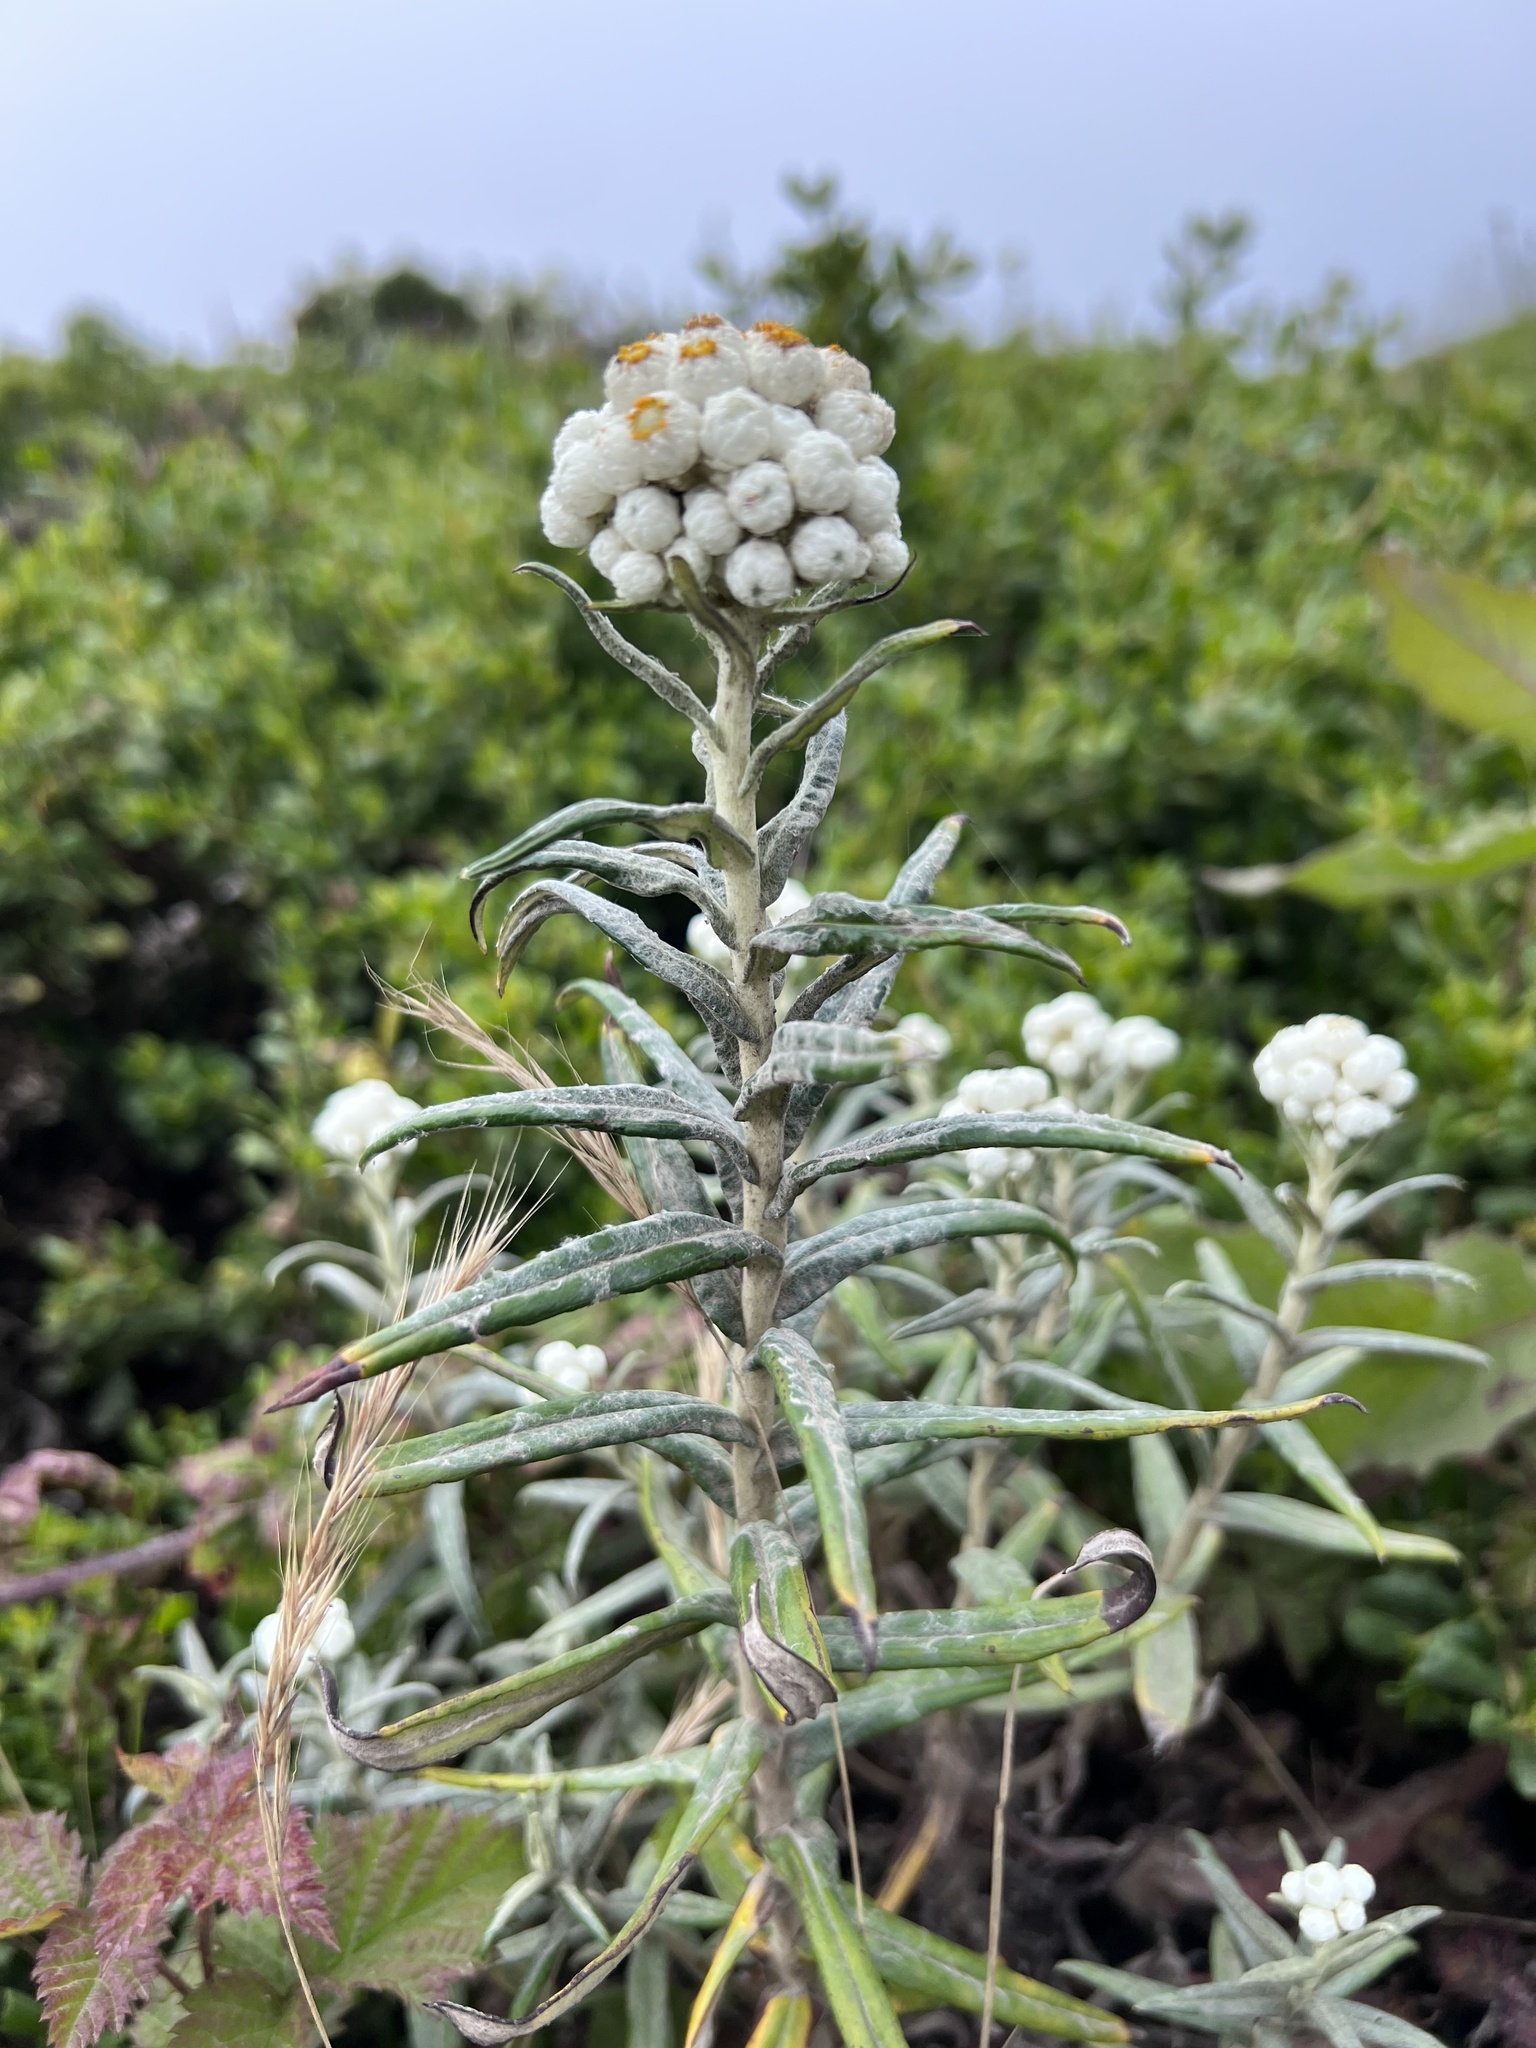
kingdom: Plantae
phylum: Tracheophyta
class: Magnoliopsida
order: Asterales
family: Asteraceae
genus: Anaphalis
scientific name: Anaphalis margaritacea
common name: Pearly everlasting
